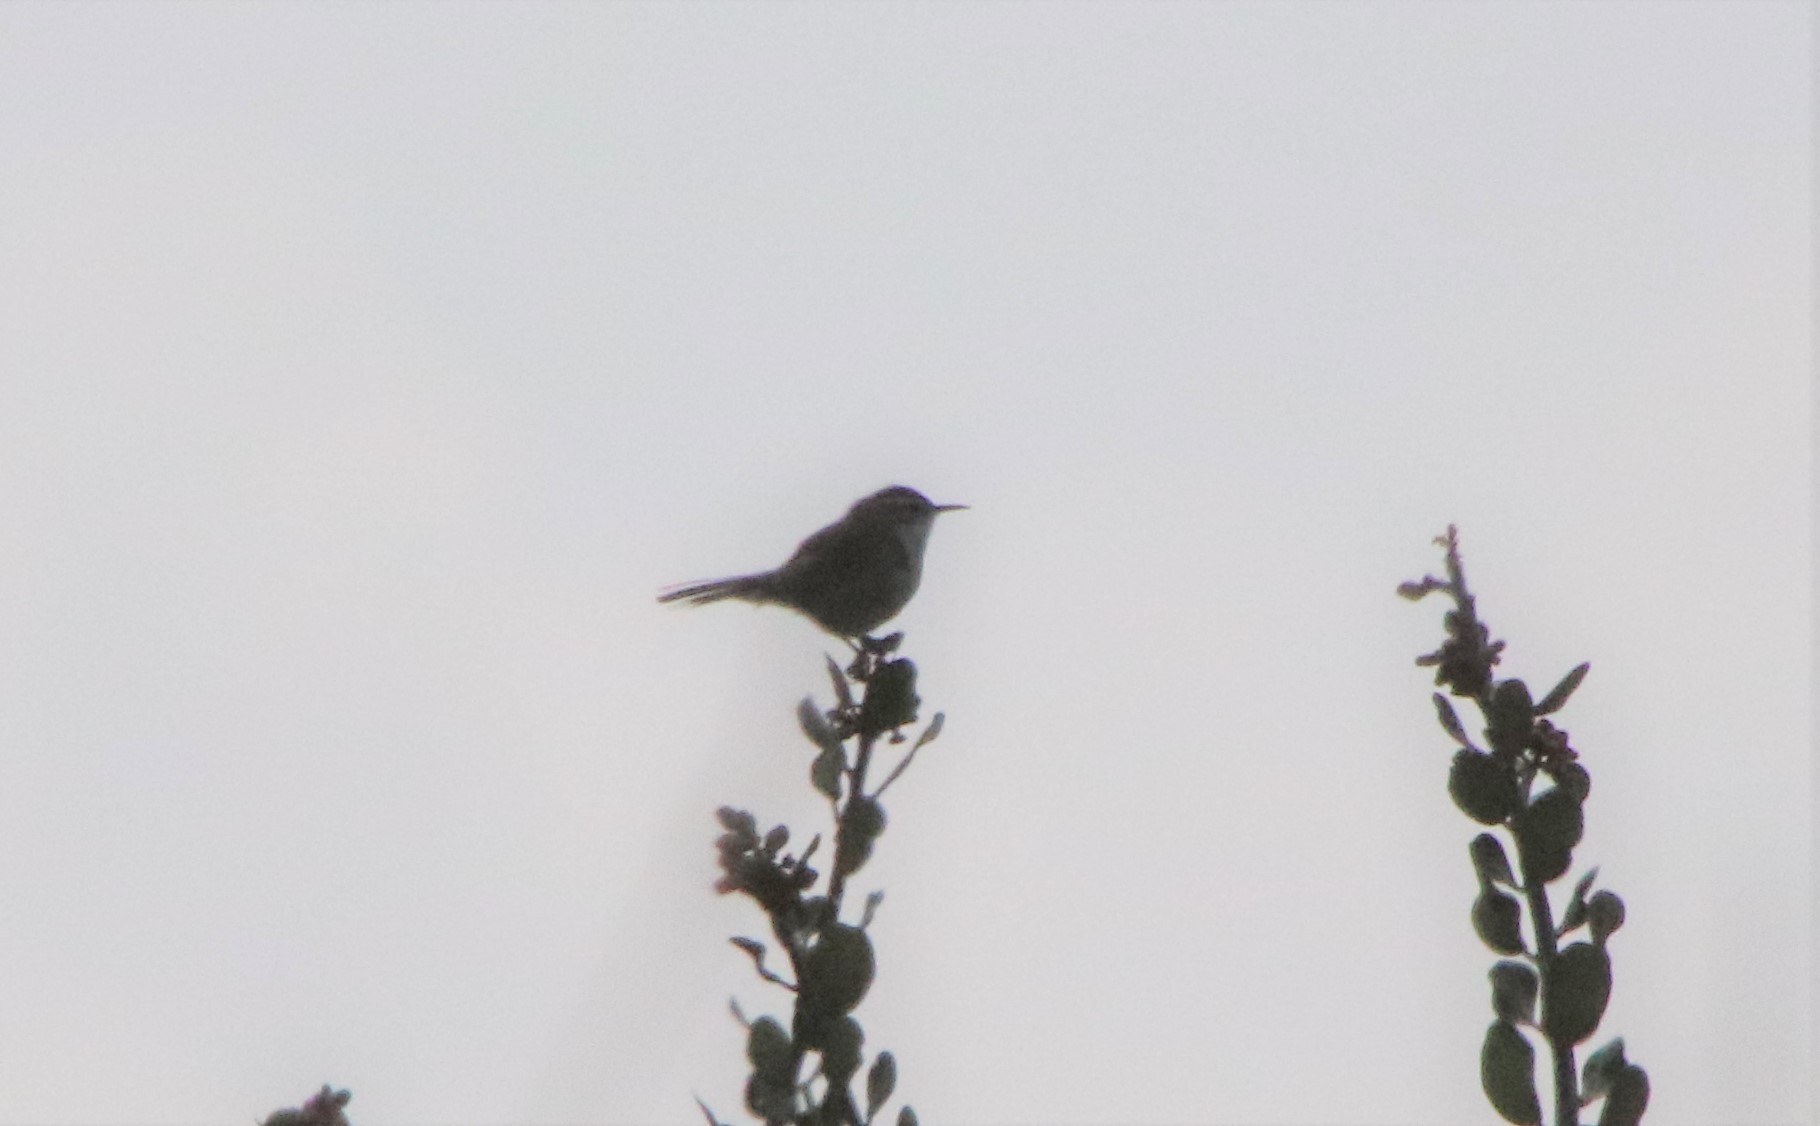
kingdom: Animalia
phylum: Chordata
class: Aves
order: Passeriformes
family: Troglodytidae
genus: Thryomanes
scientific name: Thryomanes bewickii
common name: Bewick's wren
